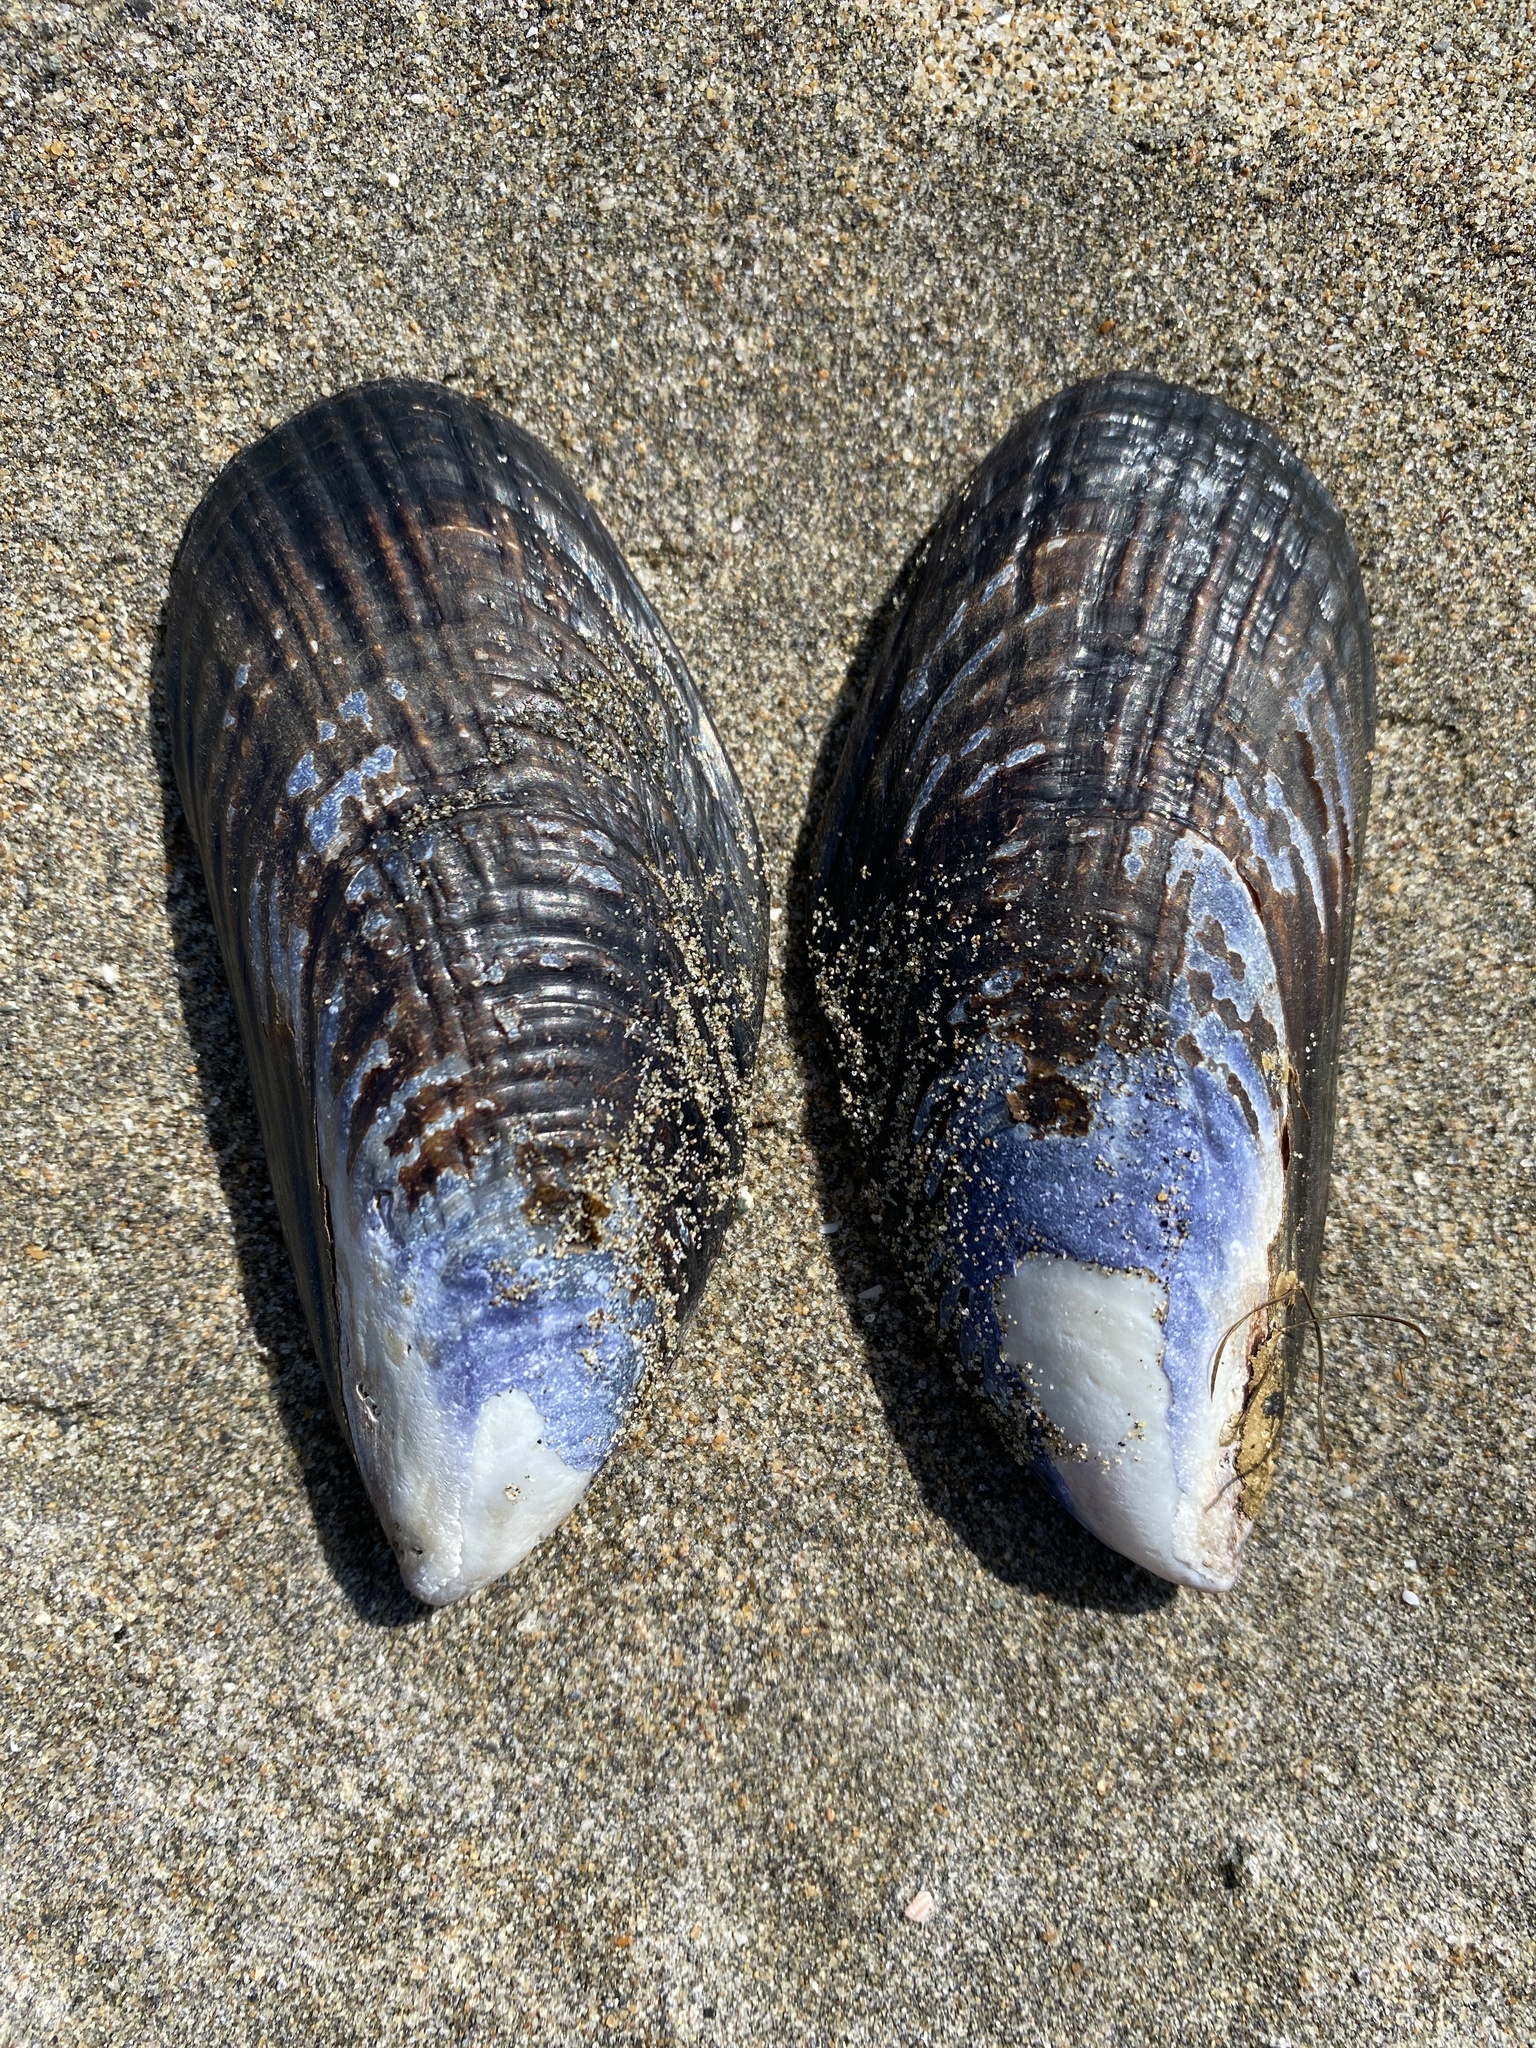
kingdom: Animalia
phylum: Mollusca
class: Bivalvia
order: Mytilida
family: Mytilidae
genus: Mytilus
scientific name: Mytilus californianus
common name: California mussel
